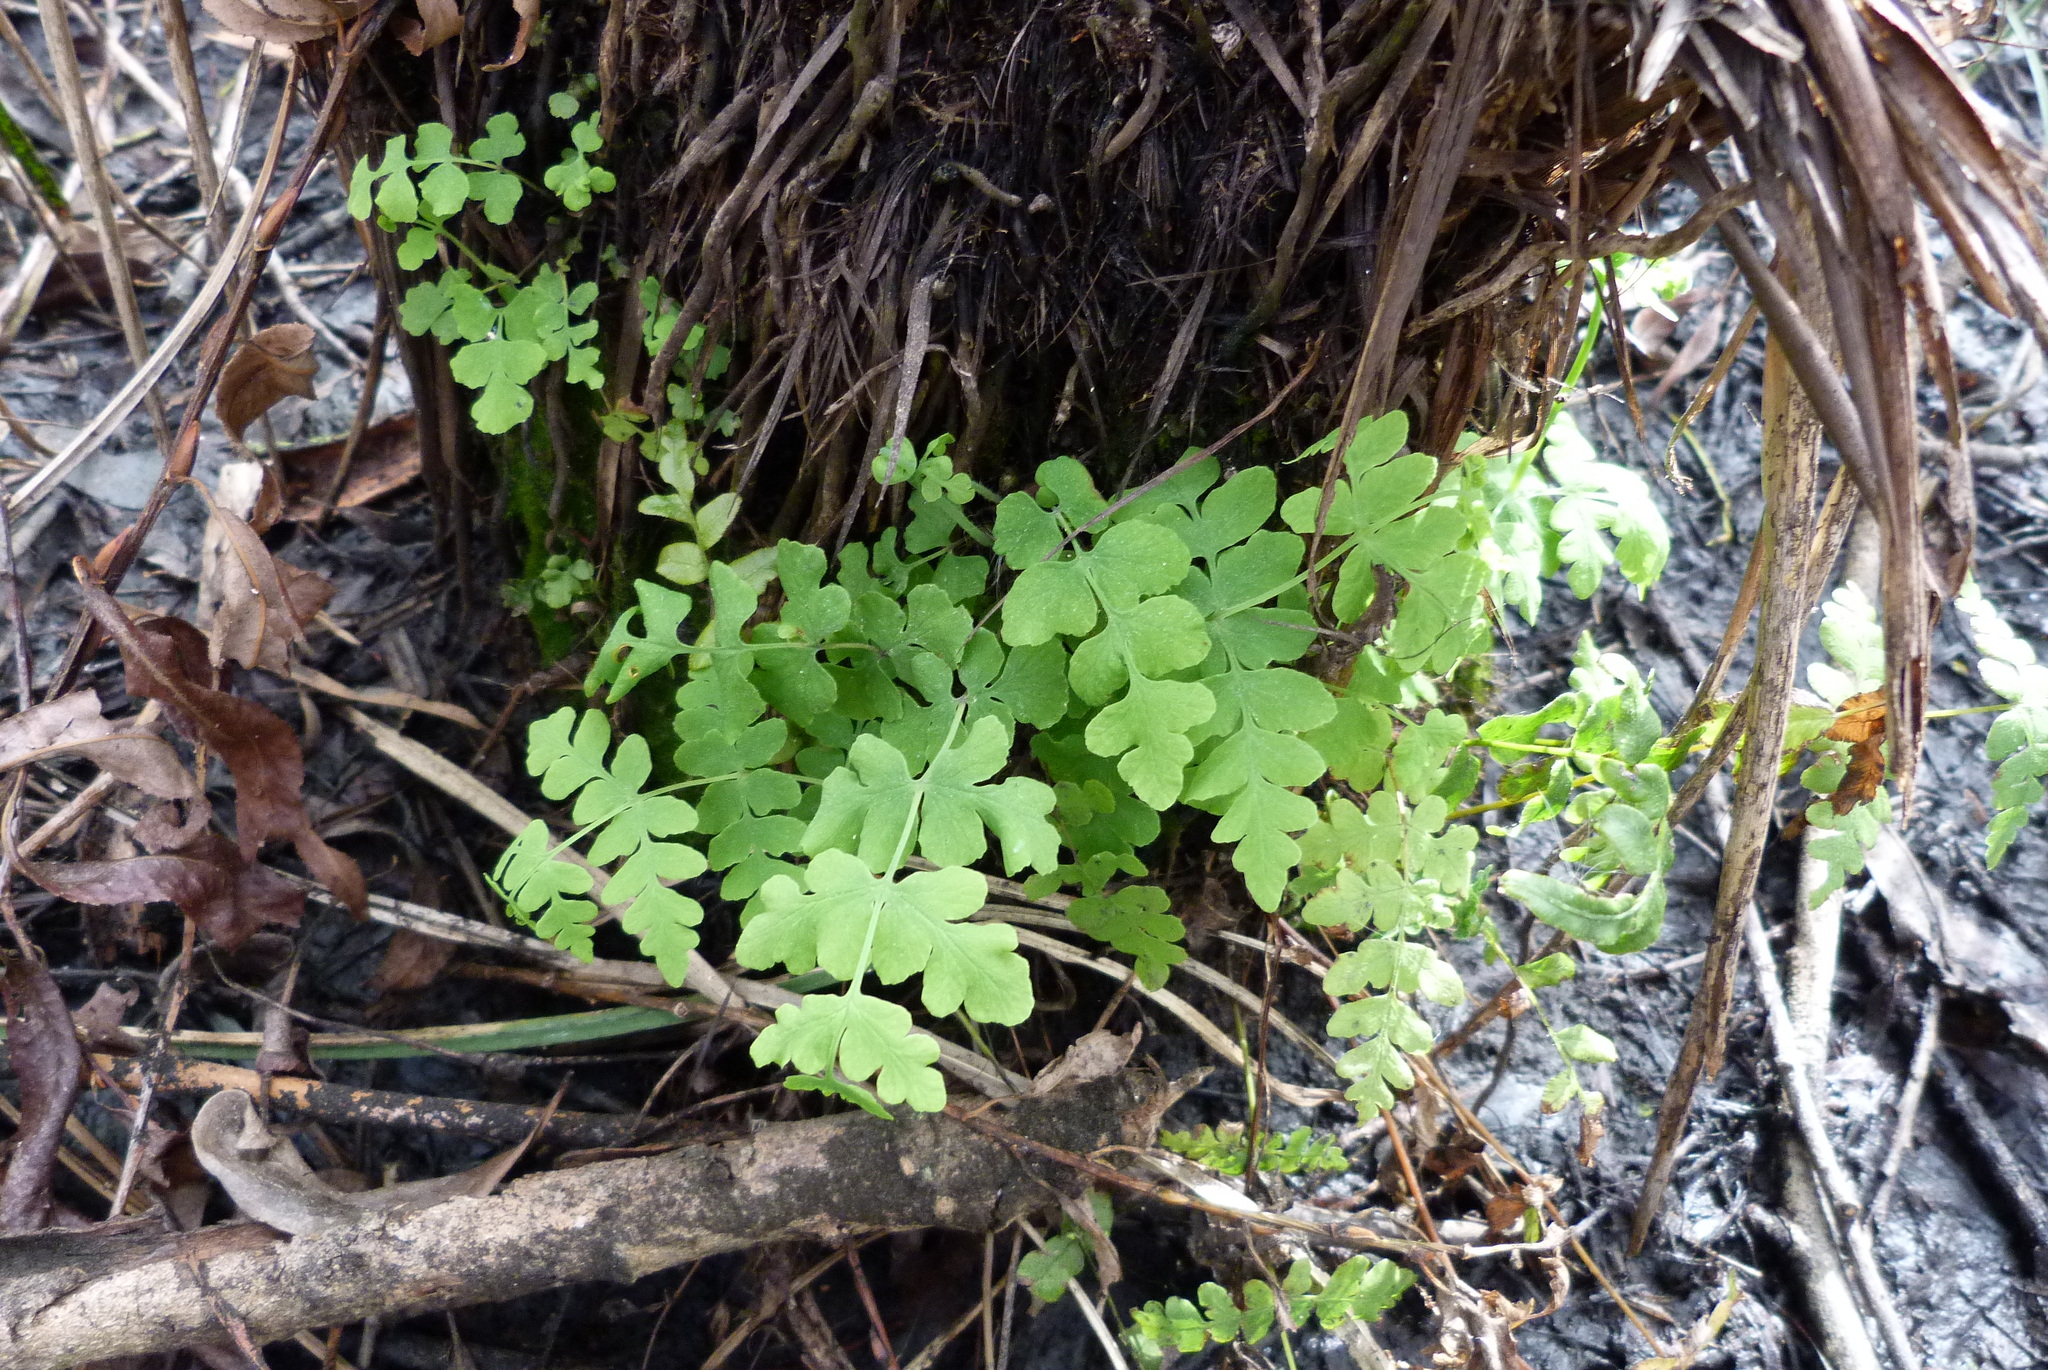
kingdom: Plantae
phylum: Tracheophyta
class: Polypodiopsida
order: Polypodiales
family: Dennstaedtiaceae
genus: Histiopteris
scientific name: Histiopteris incisa
